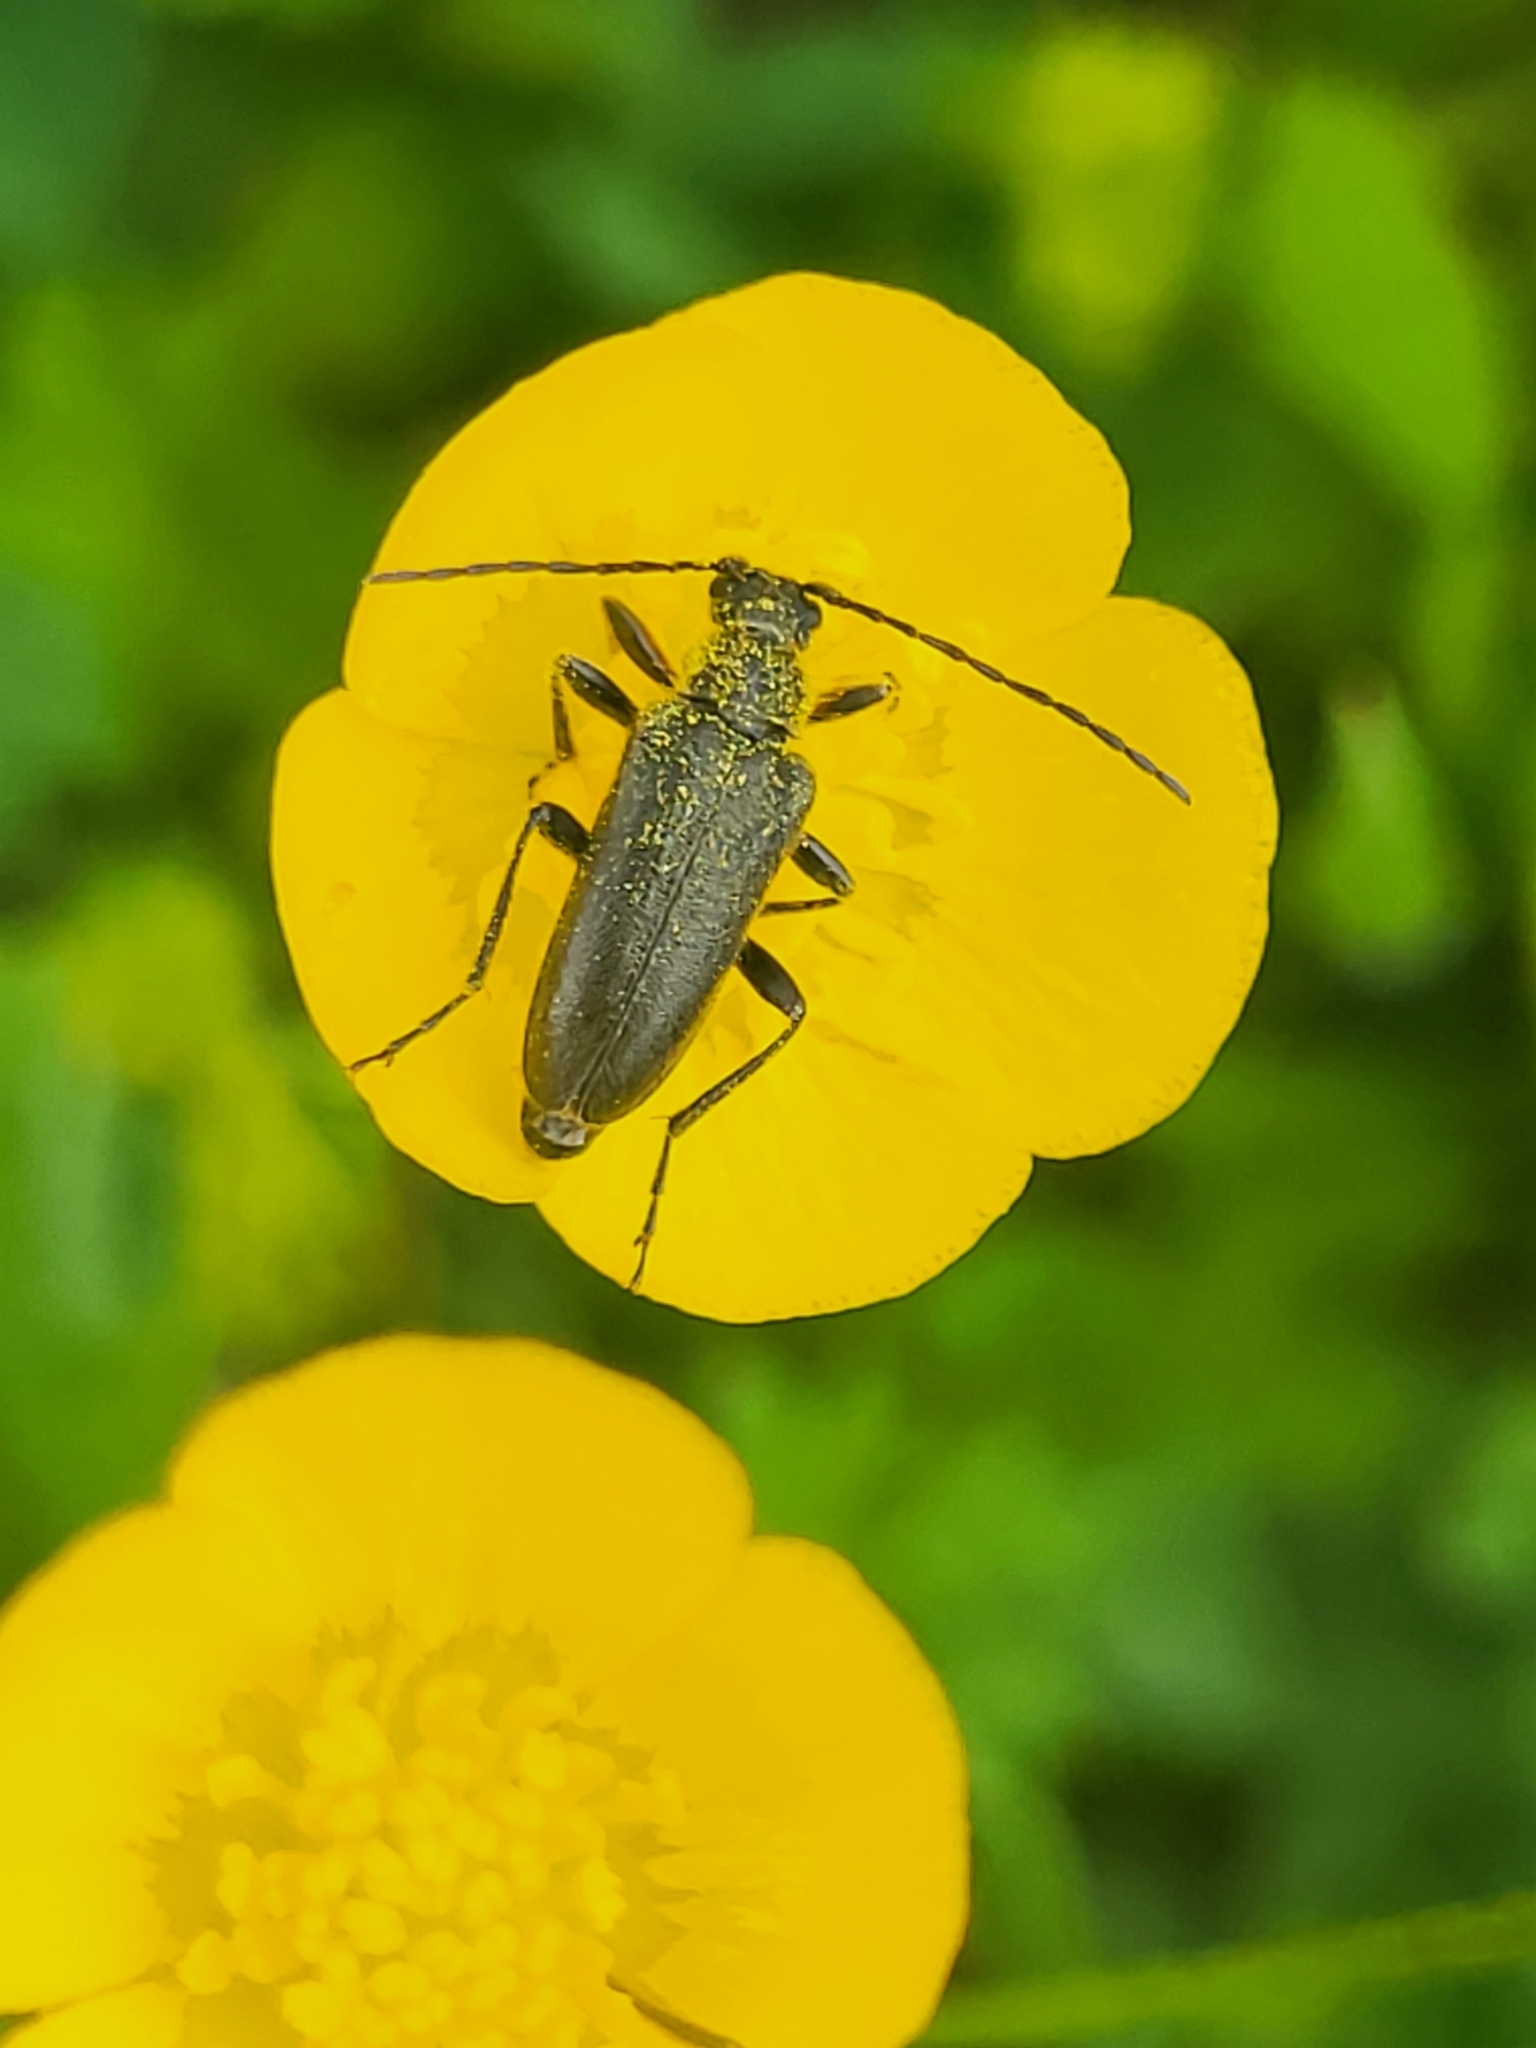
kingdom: Animalia
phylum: Arthropoda
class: Insecta
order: Coleoptera
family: Cerambycidae
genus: Cortodera
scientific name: Cortodera alpina
